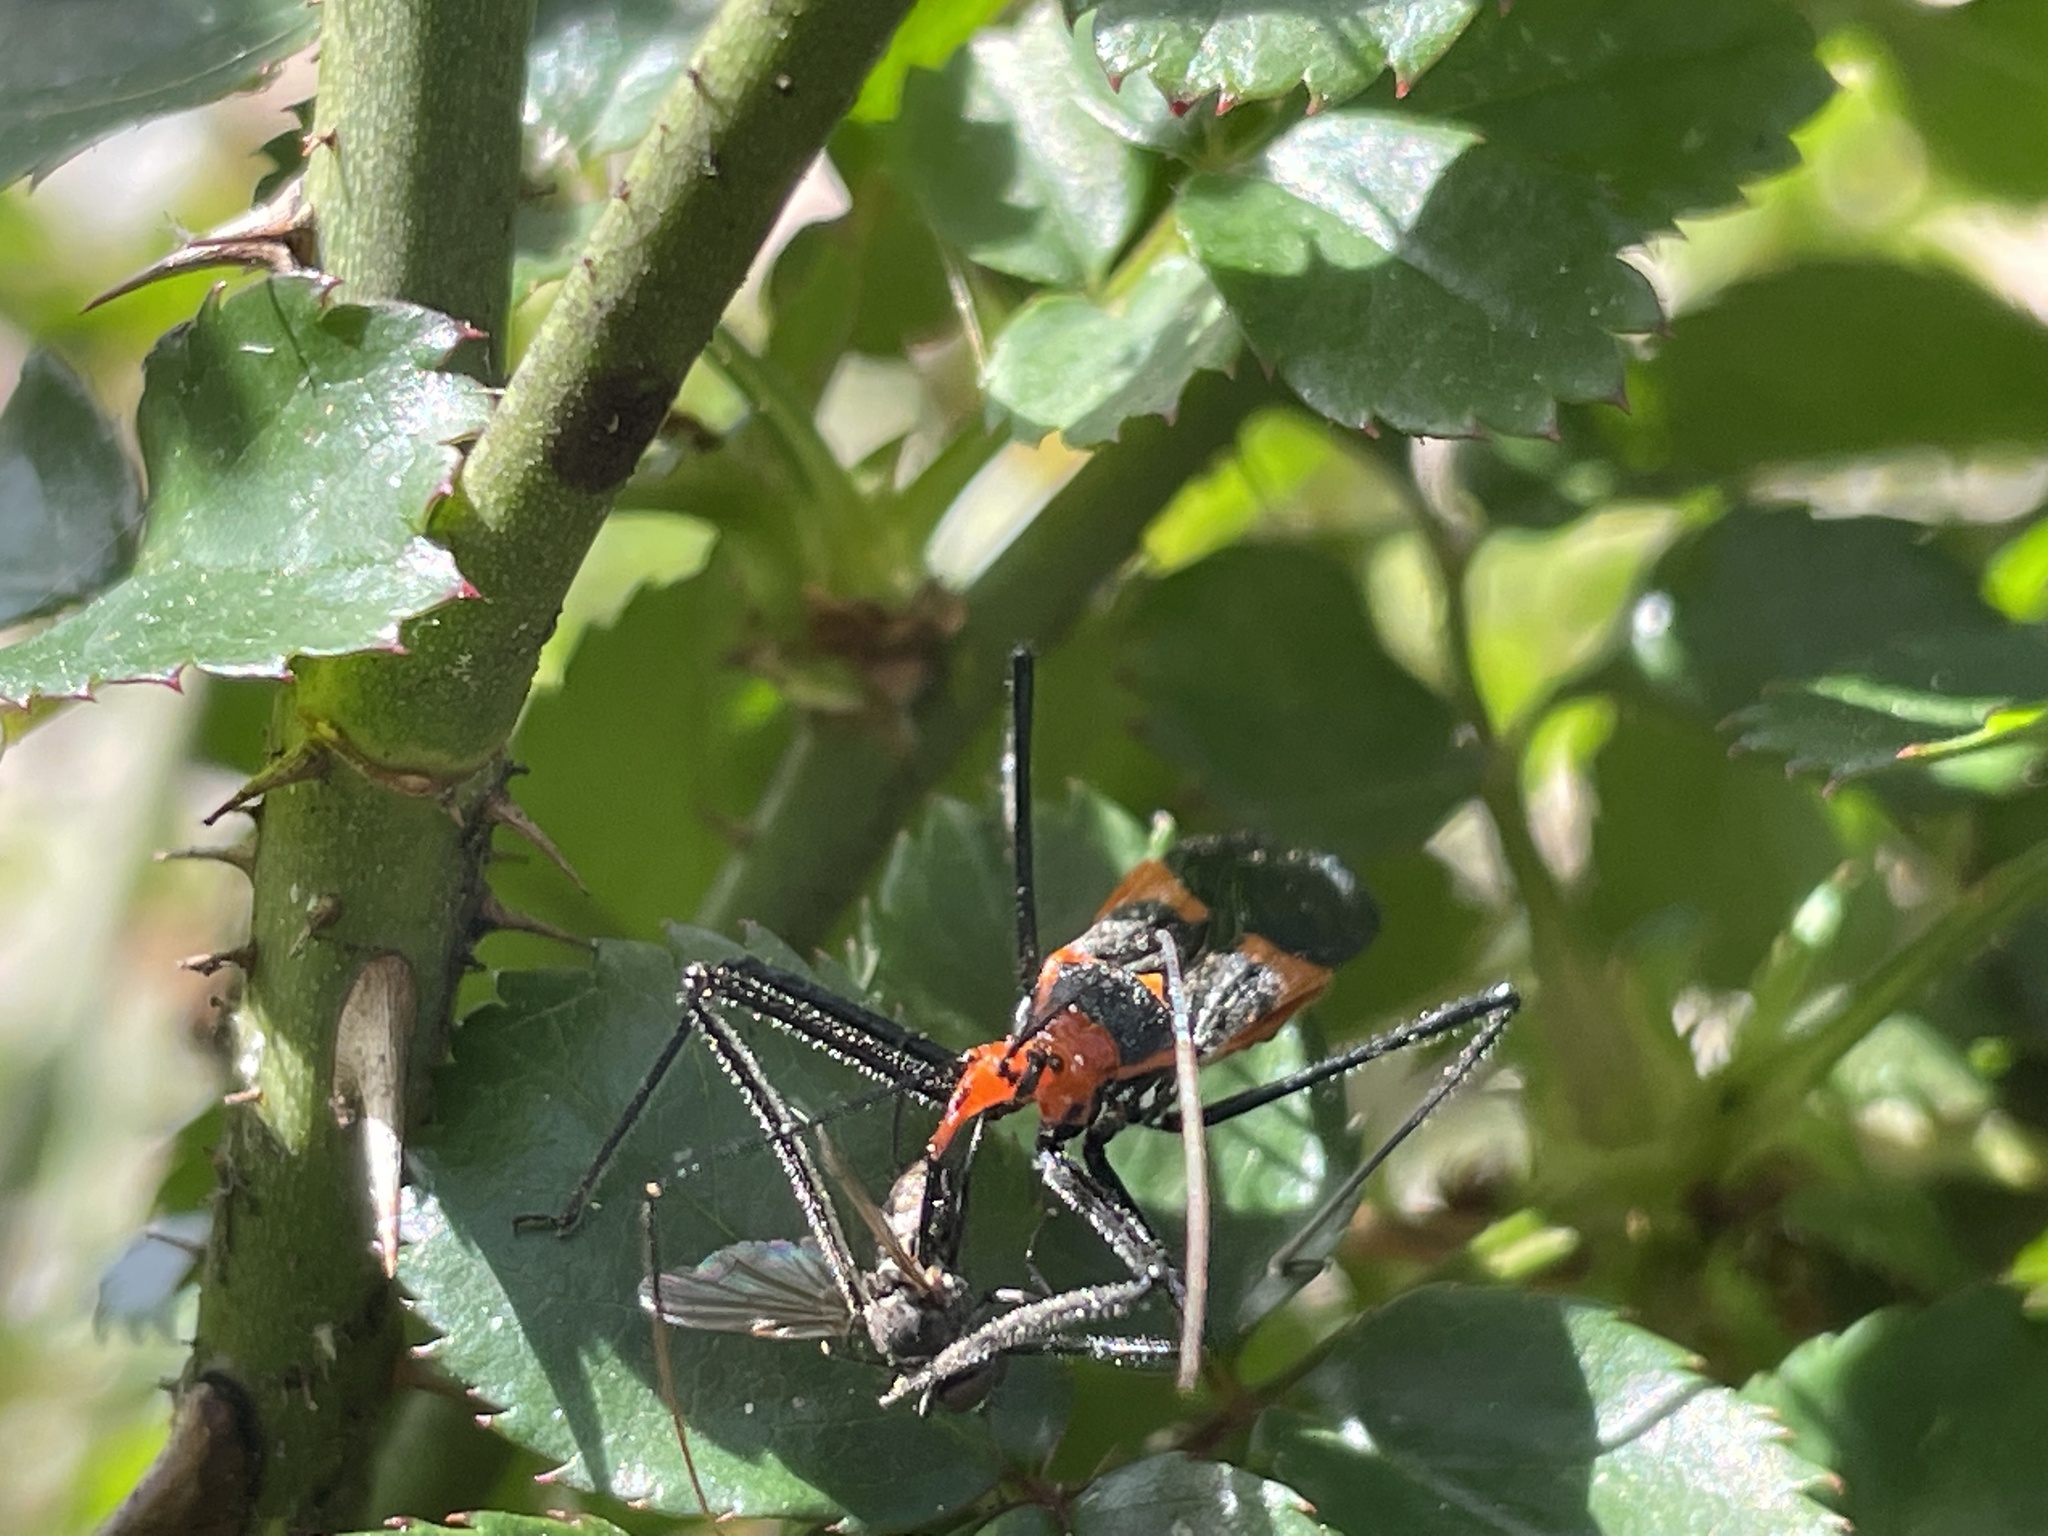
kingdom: Animalia
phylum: Arthropoda
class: Insecta
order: Hemiptera
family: Reduviidae
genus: Zelus
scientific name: Zelus longipes
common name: Milkweed assassin bug
